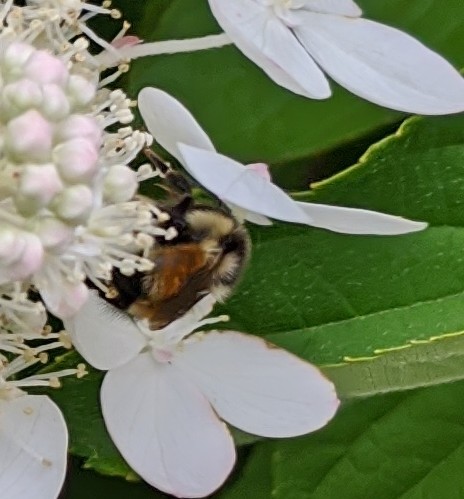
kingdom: Animalia
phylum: Arthropoda
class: Insecta
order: Hymenoptera
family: Apidae
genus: Bombus
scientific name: Bombus ternarius
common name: Tri-colored bumble bee
